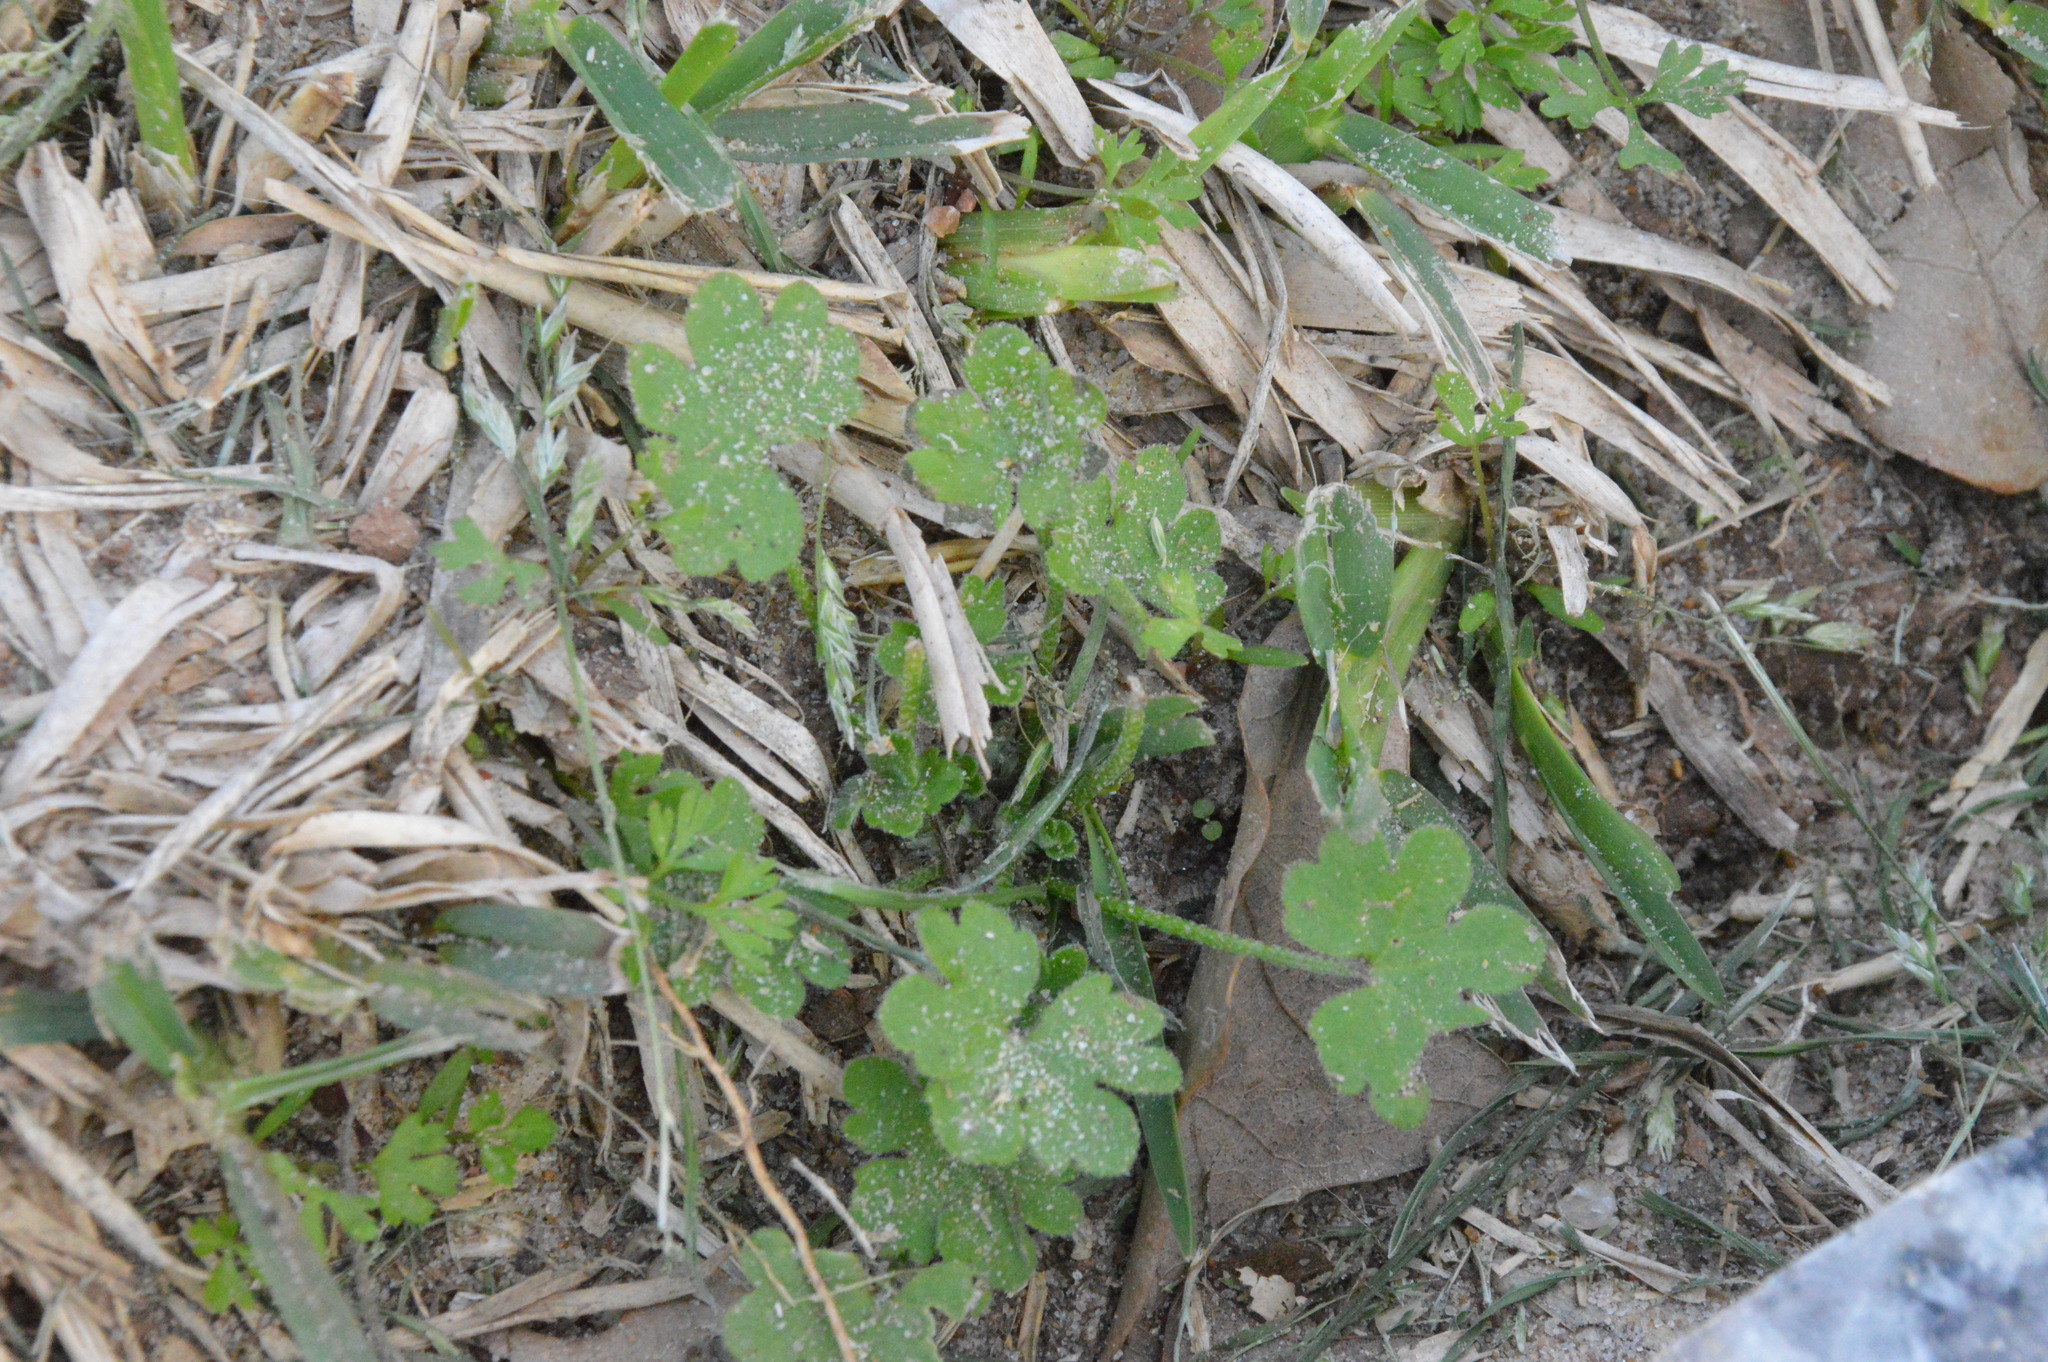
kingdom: Plantae
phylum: Tracheophyta
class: Magnoliopsida
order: Apiales
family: Apiaceae
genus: Bowlesia
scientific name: Bowlesia incana
